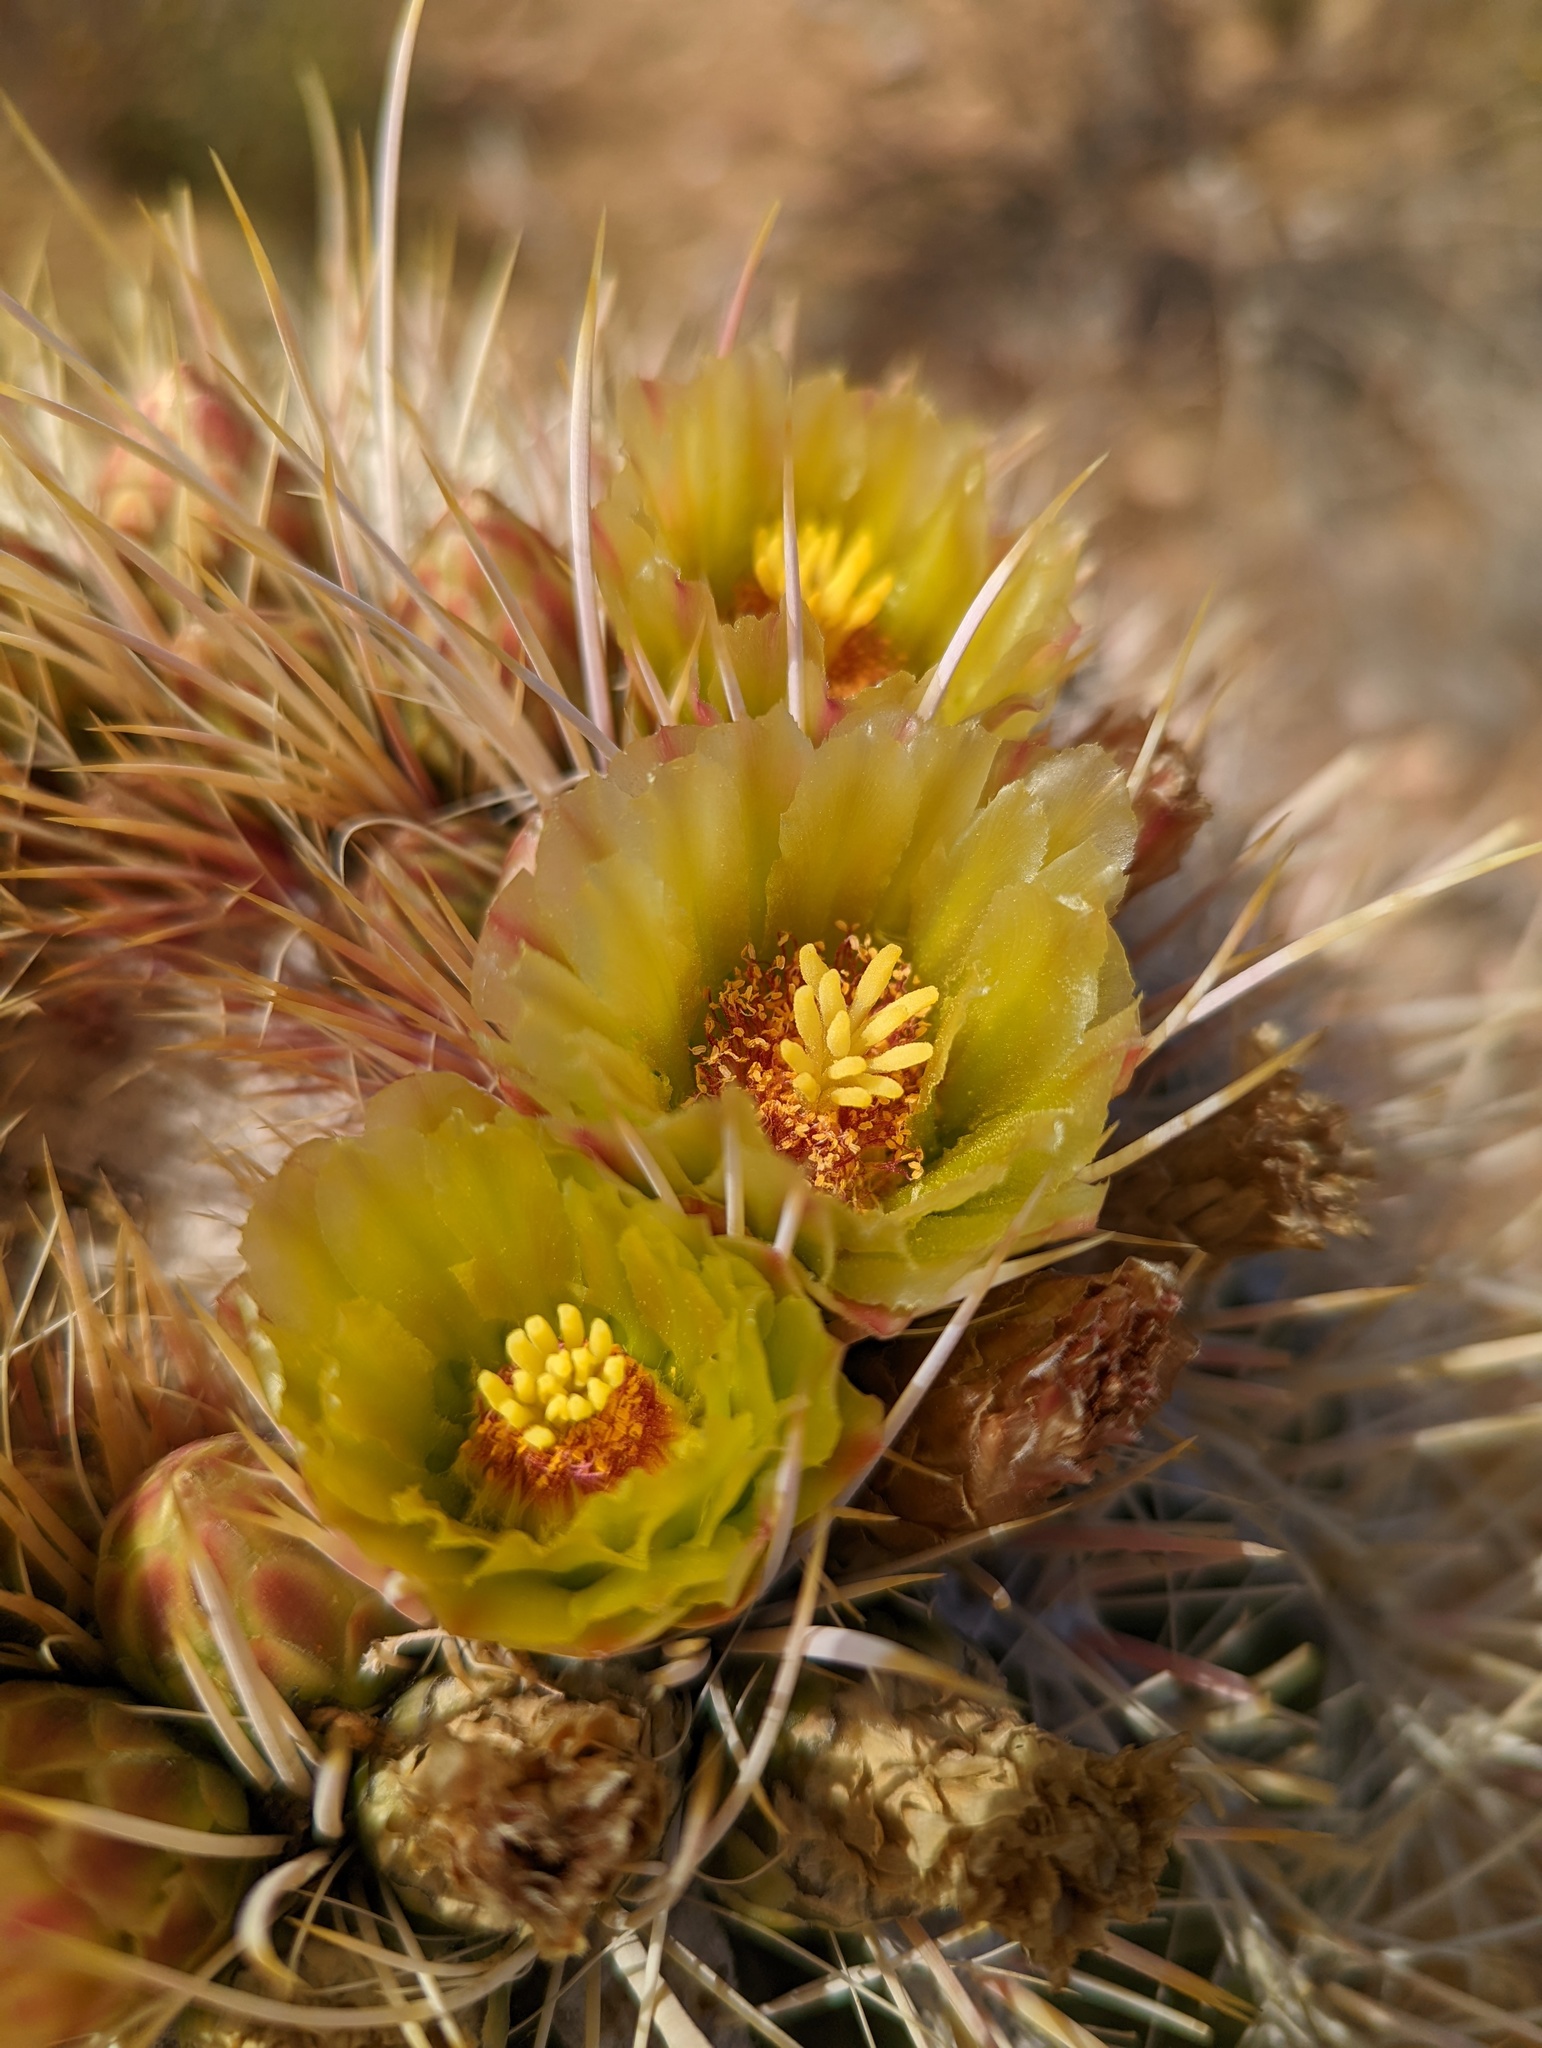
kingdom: Plantae
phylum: Tracheophyta
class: Magnoliopsida
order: Caryophyllales
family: Cactaceae
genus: Ferocactus
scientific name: Ferocactus cylindraceus
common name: California barrel cactus
